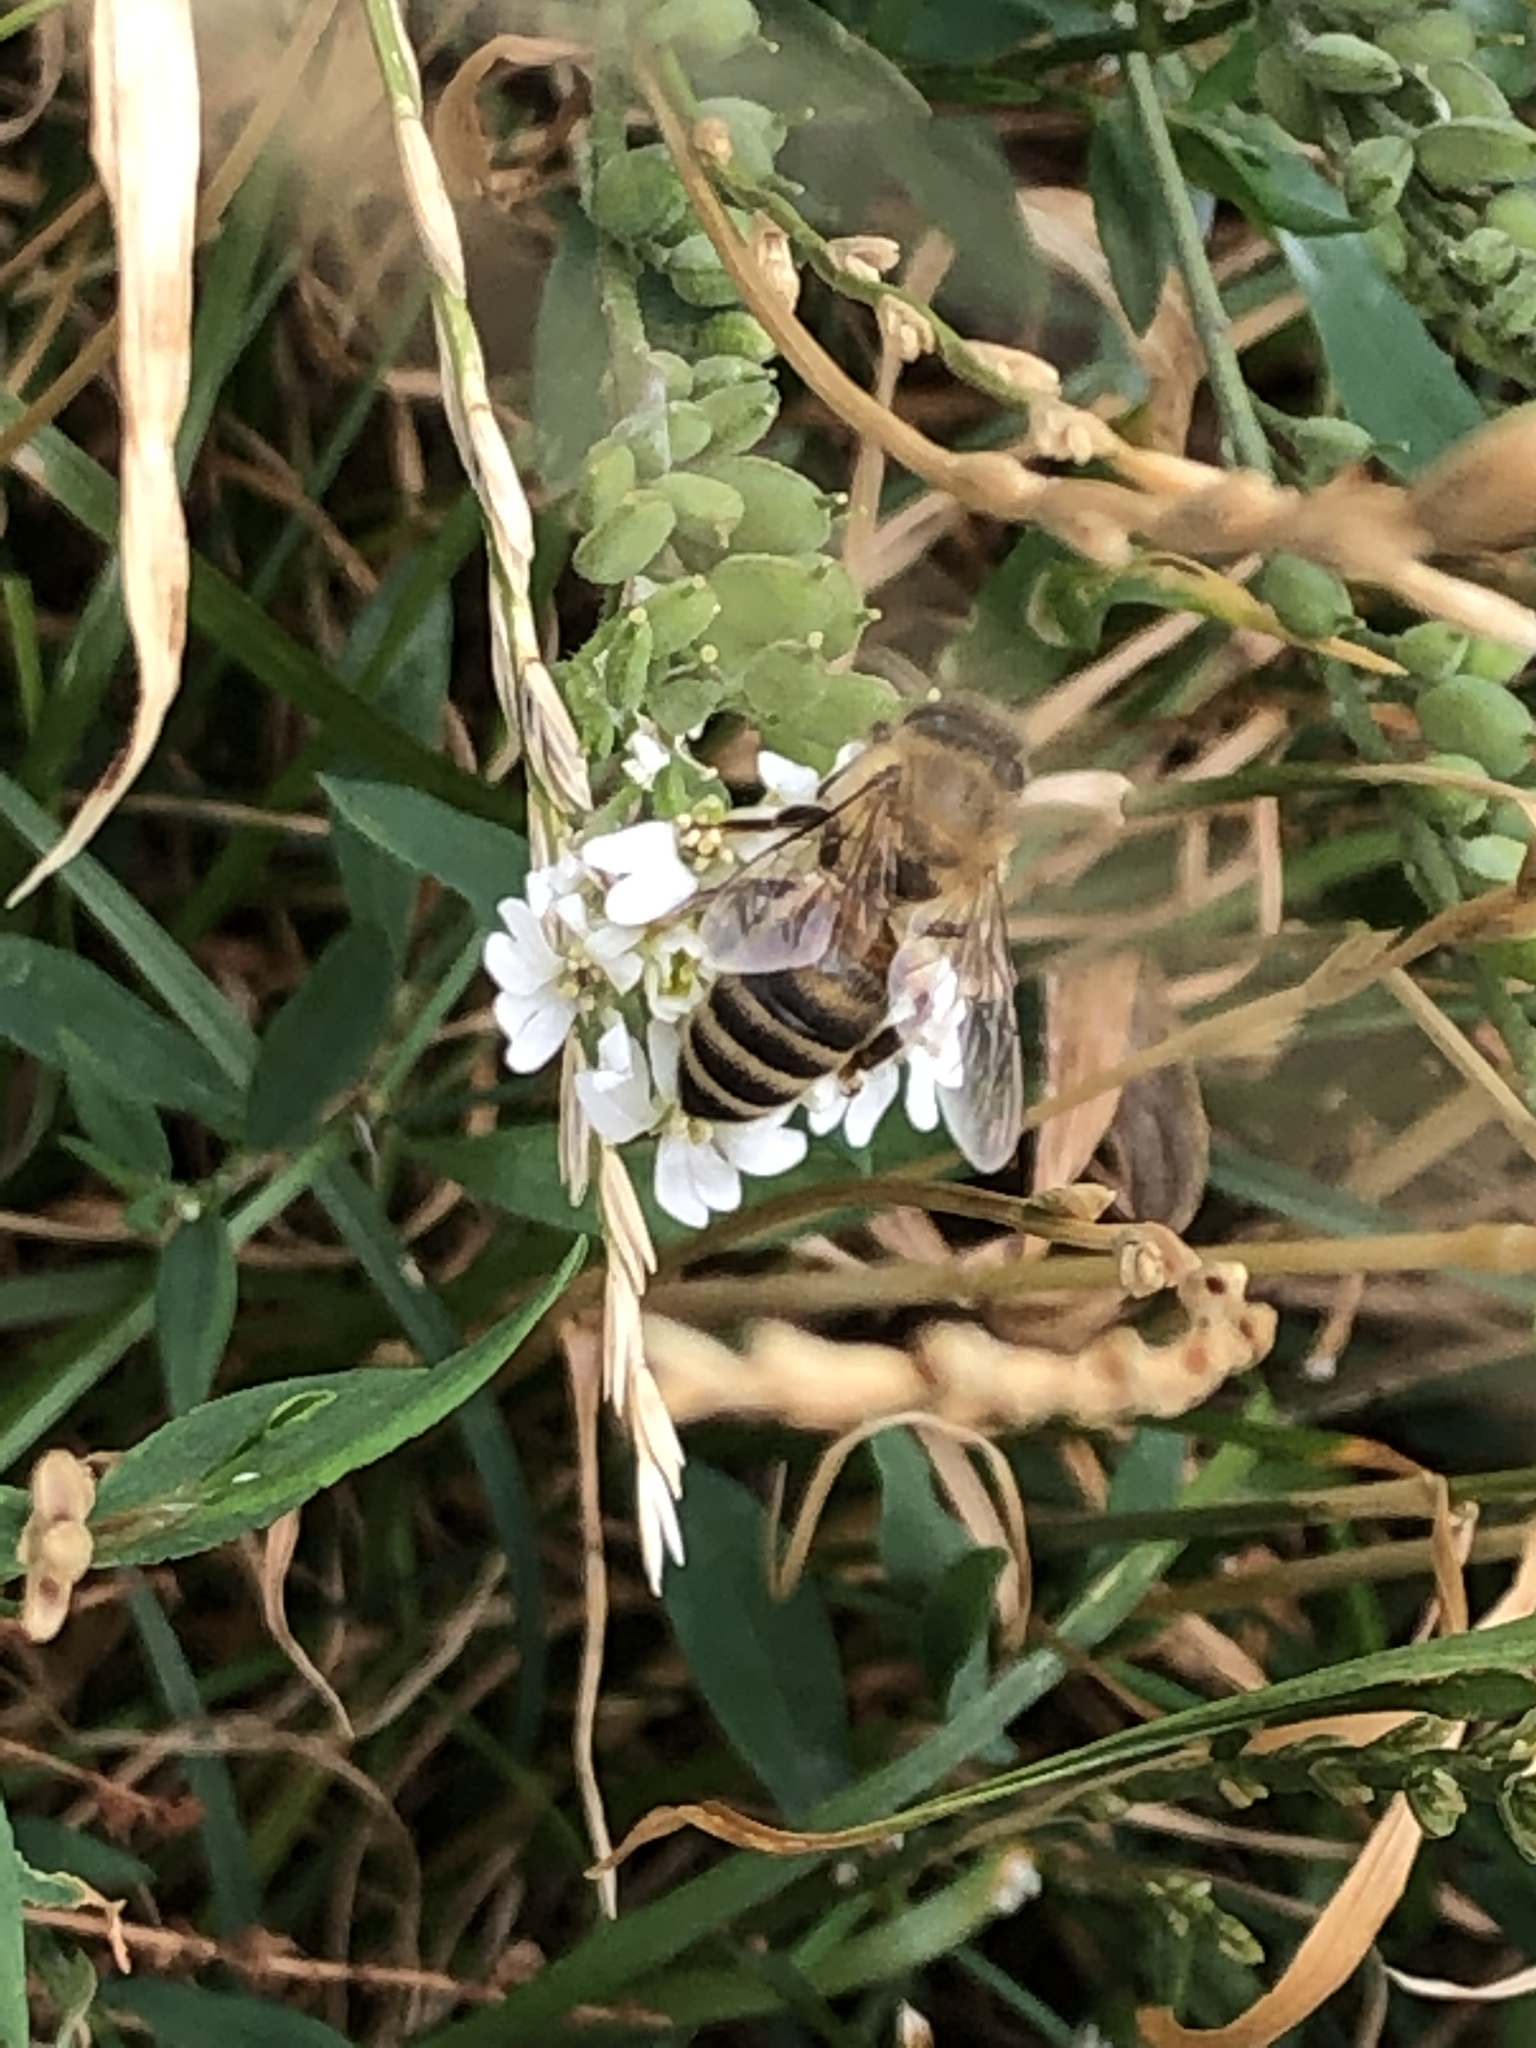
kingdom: Animalia
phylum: Arthropoda
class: Insecta
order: Hymenoptera
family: Apidae
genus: Apis
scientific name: Apis mellifera
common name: Honey bee
